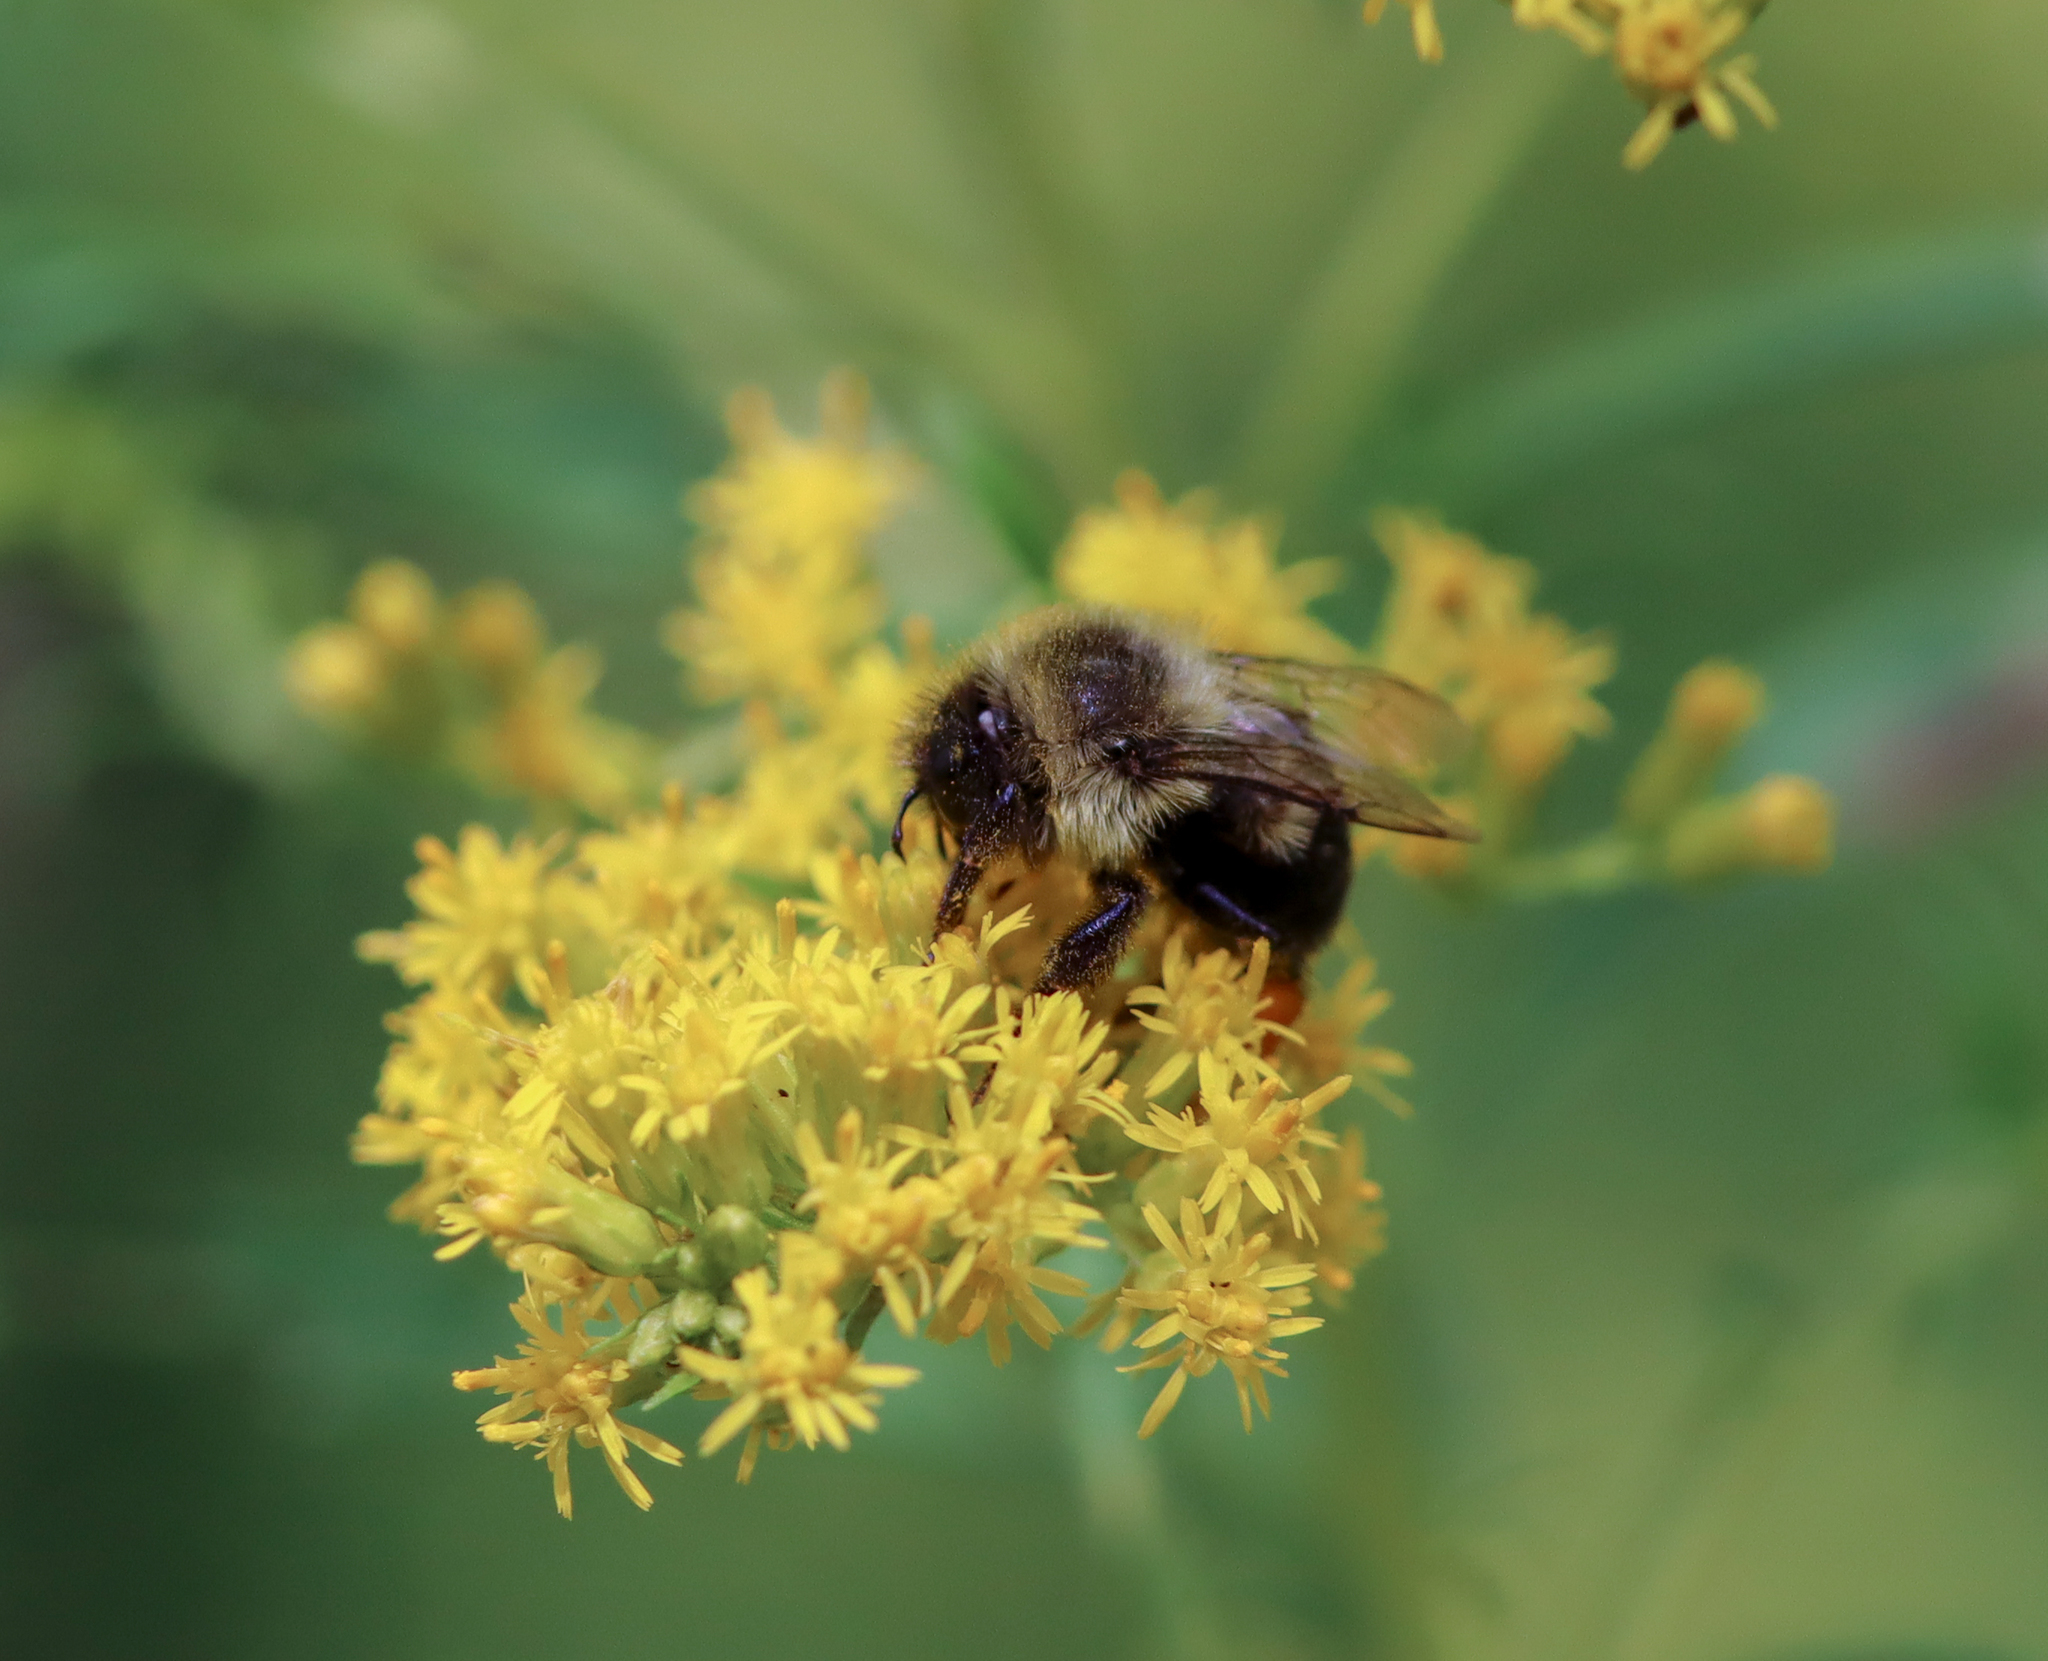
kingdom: Animalia
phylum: Arthropoda
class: Insecta
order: Hymenoptera
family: Apidae
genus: Bombus
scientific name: Bombus impatiens
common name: Common eastern bumble bee
